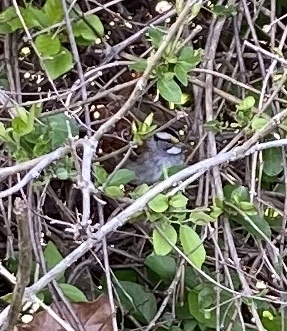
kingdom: Animalia
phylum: Chordata
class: Aves
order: Passeriformes
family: Passerellidae
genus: Zonotrichia
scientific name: Zonotrichia albicollis
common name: White-throated sparrow
